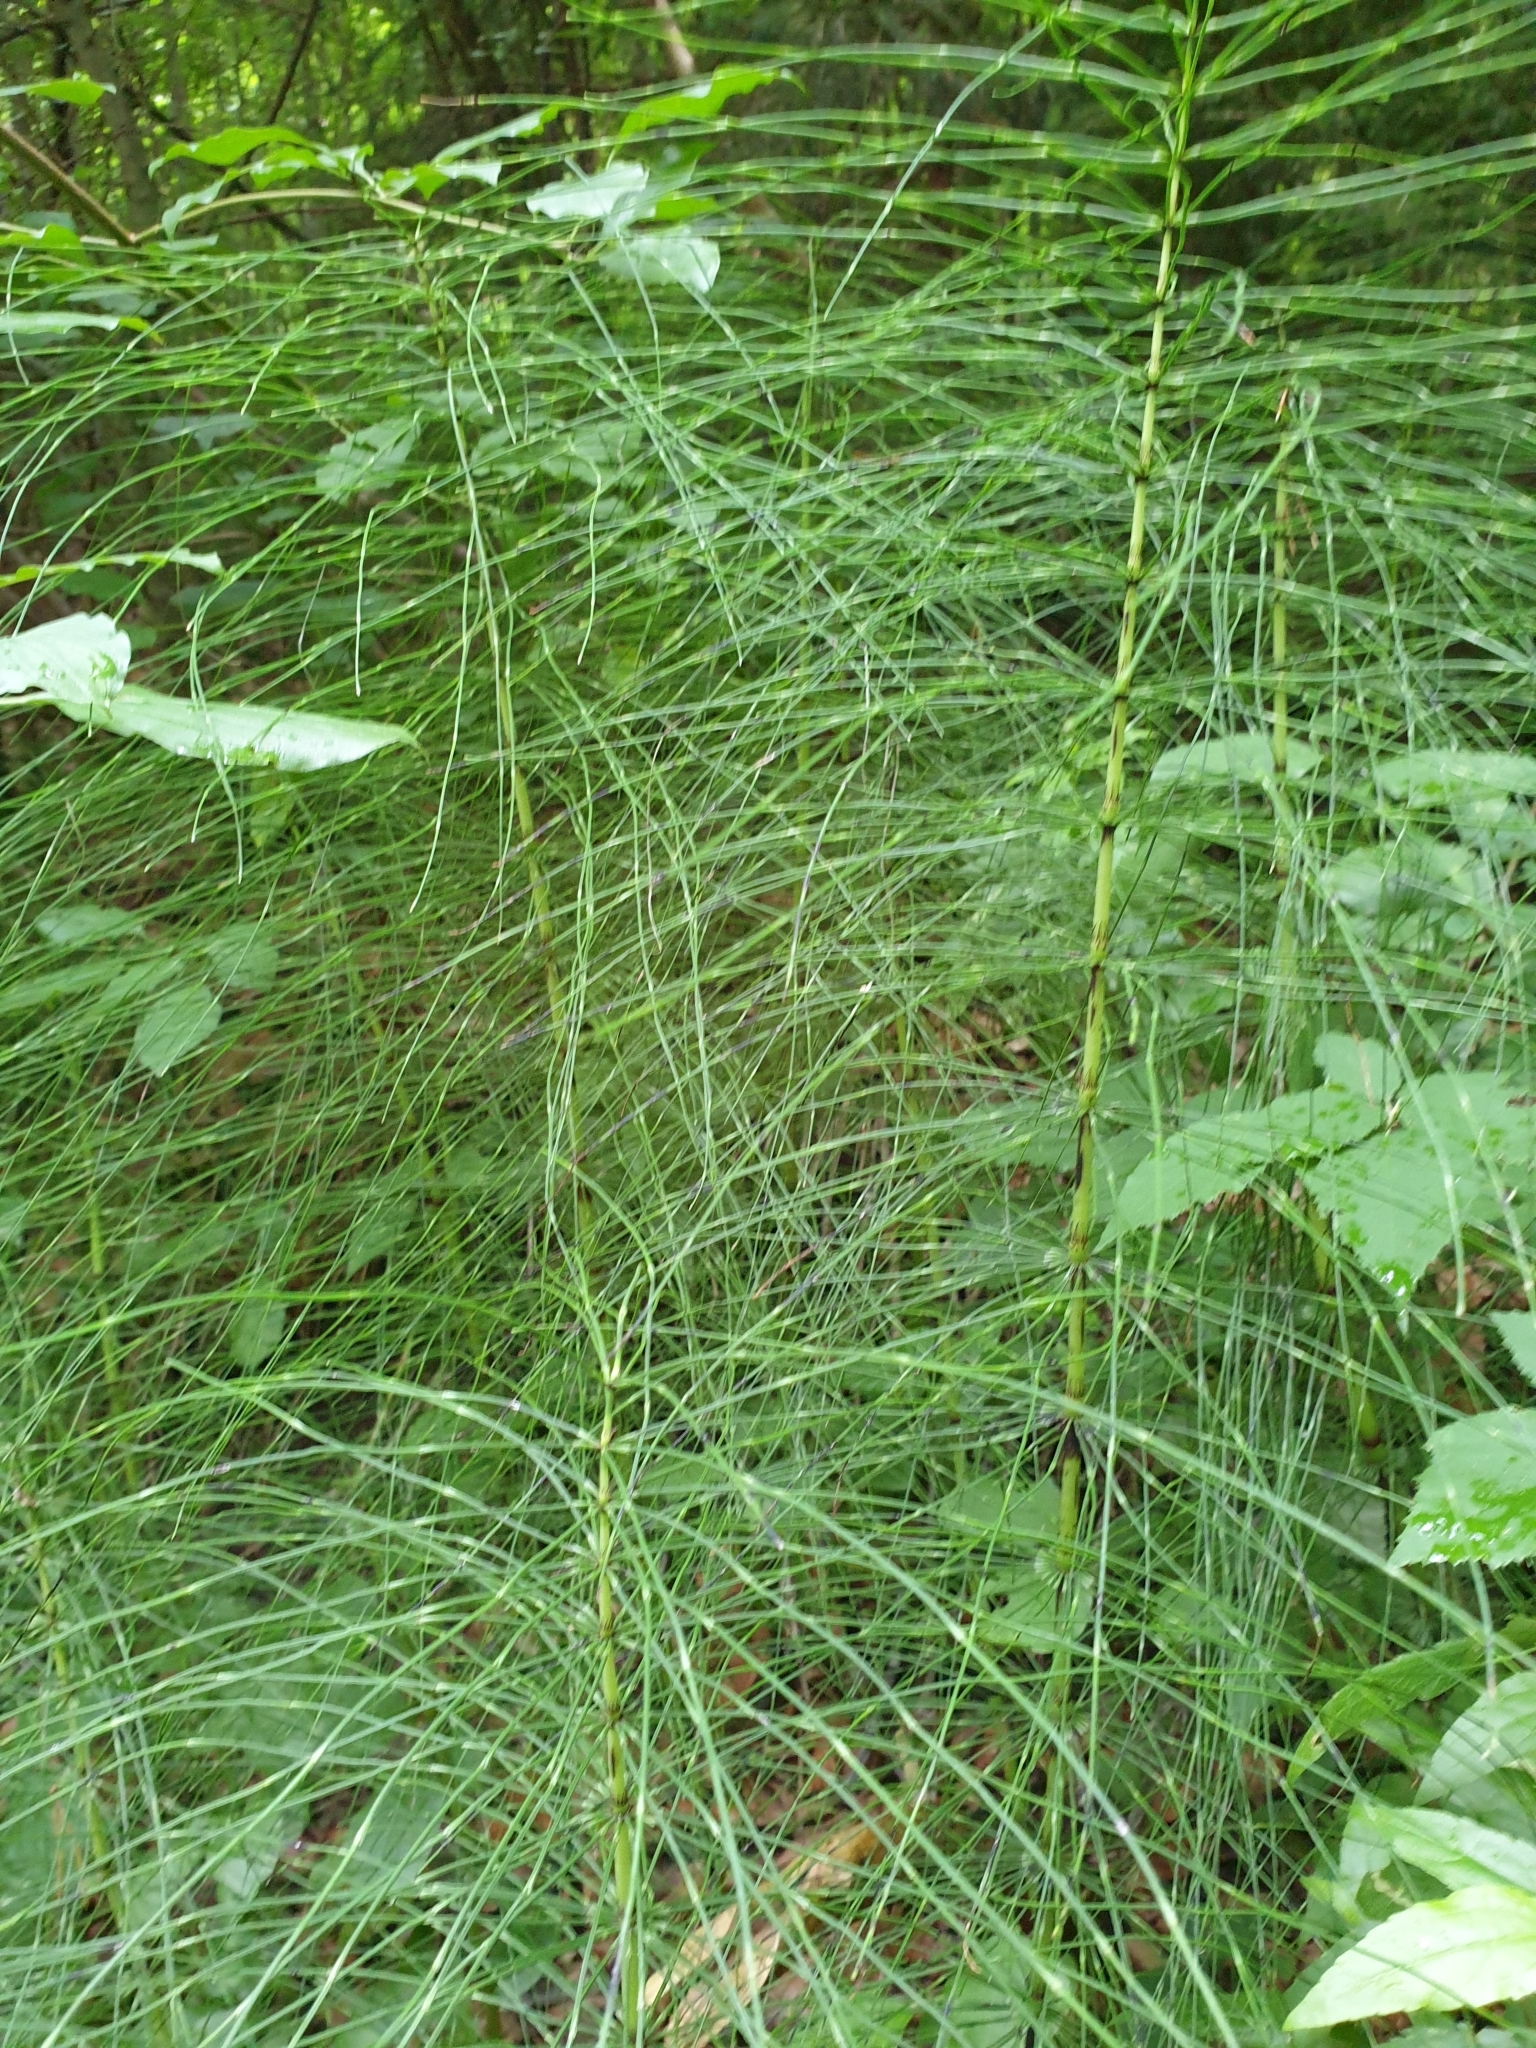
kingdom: Plantae
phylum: Tracheophyta
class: Polypodiopsida
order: Equisetales
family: Equisetaceae
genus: Equisetum
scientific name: Equisetum telmateia
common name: Great horsetail
